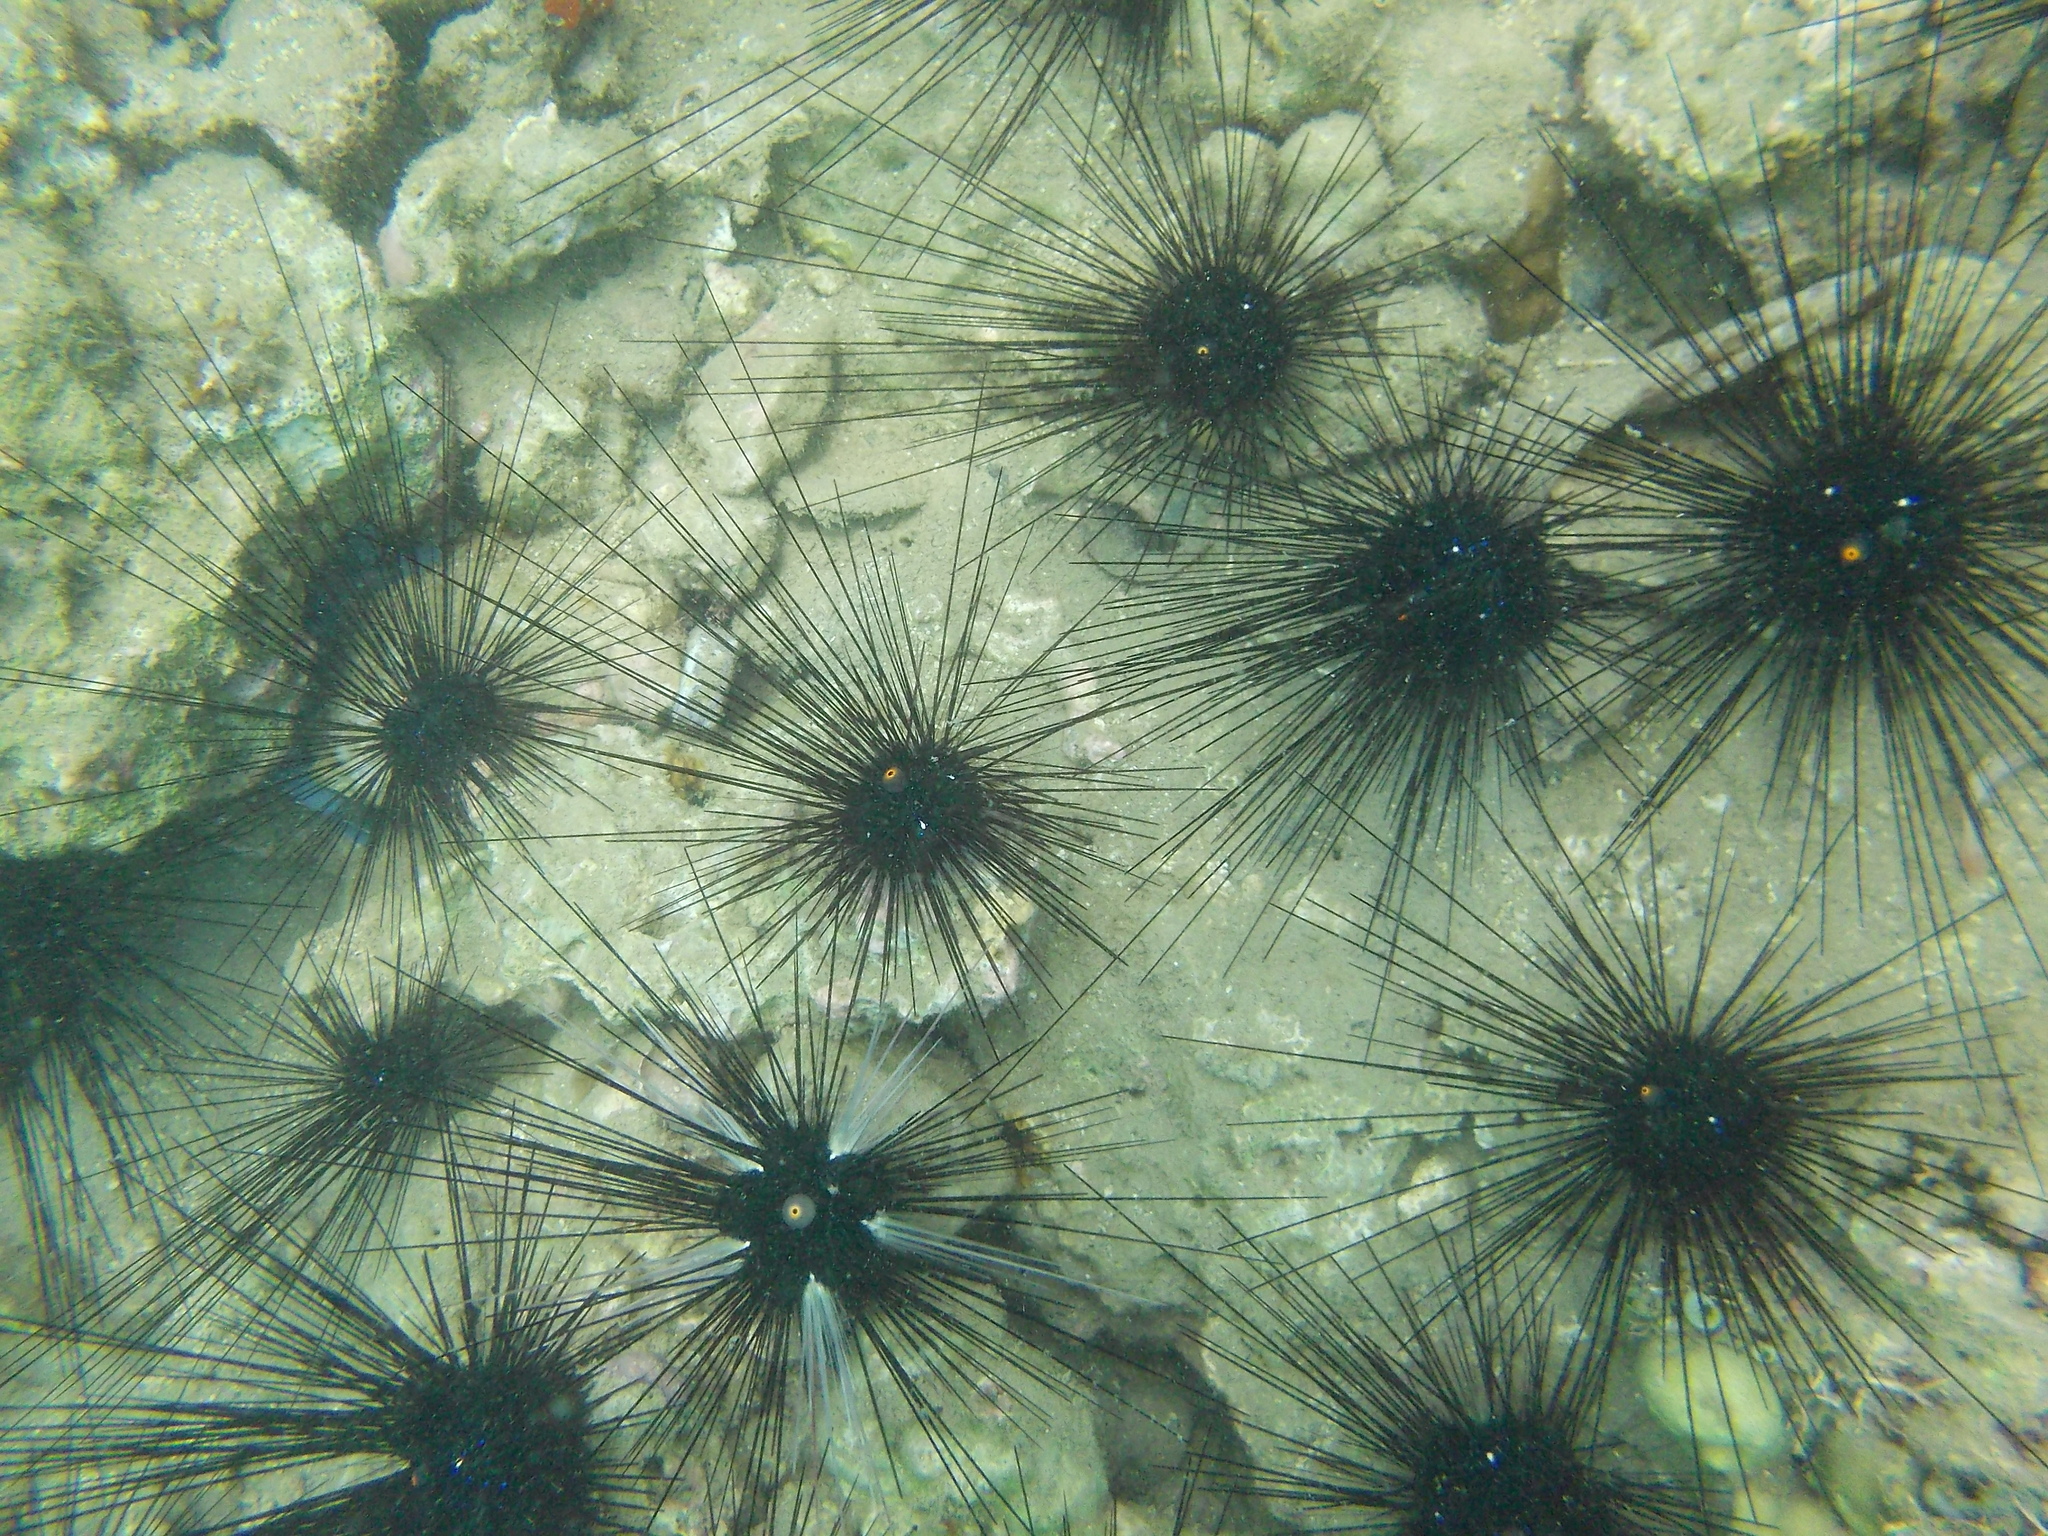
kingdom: Animalia
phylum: Echinodermata
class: Echinoidea
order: Diadematoida
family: Diadematidae
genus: Diadema
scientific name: Diadema setosum
